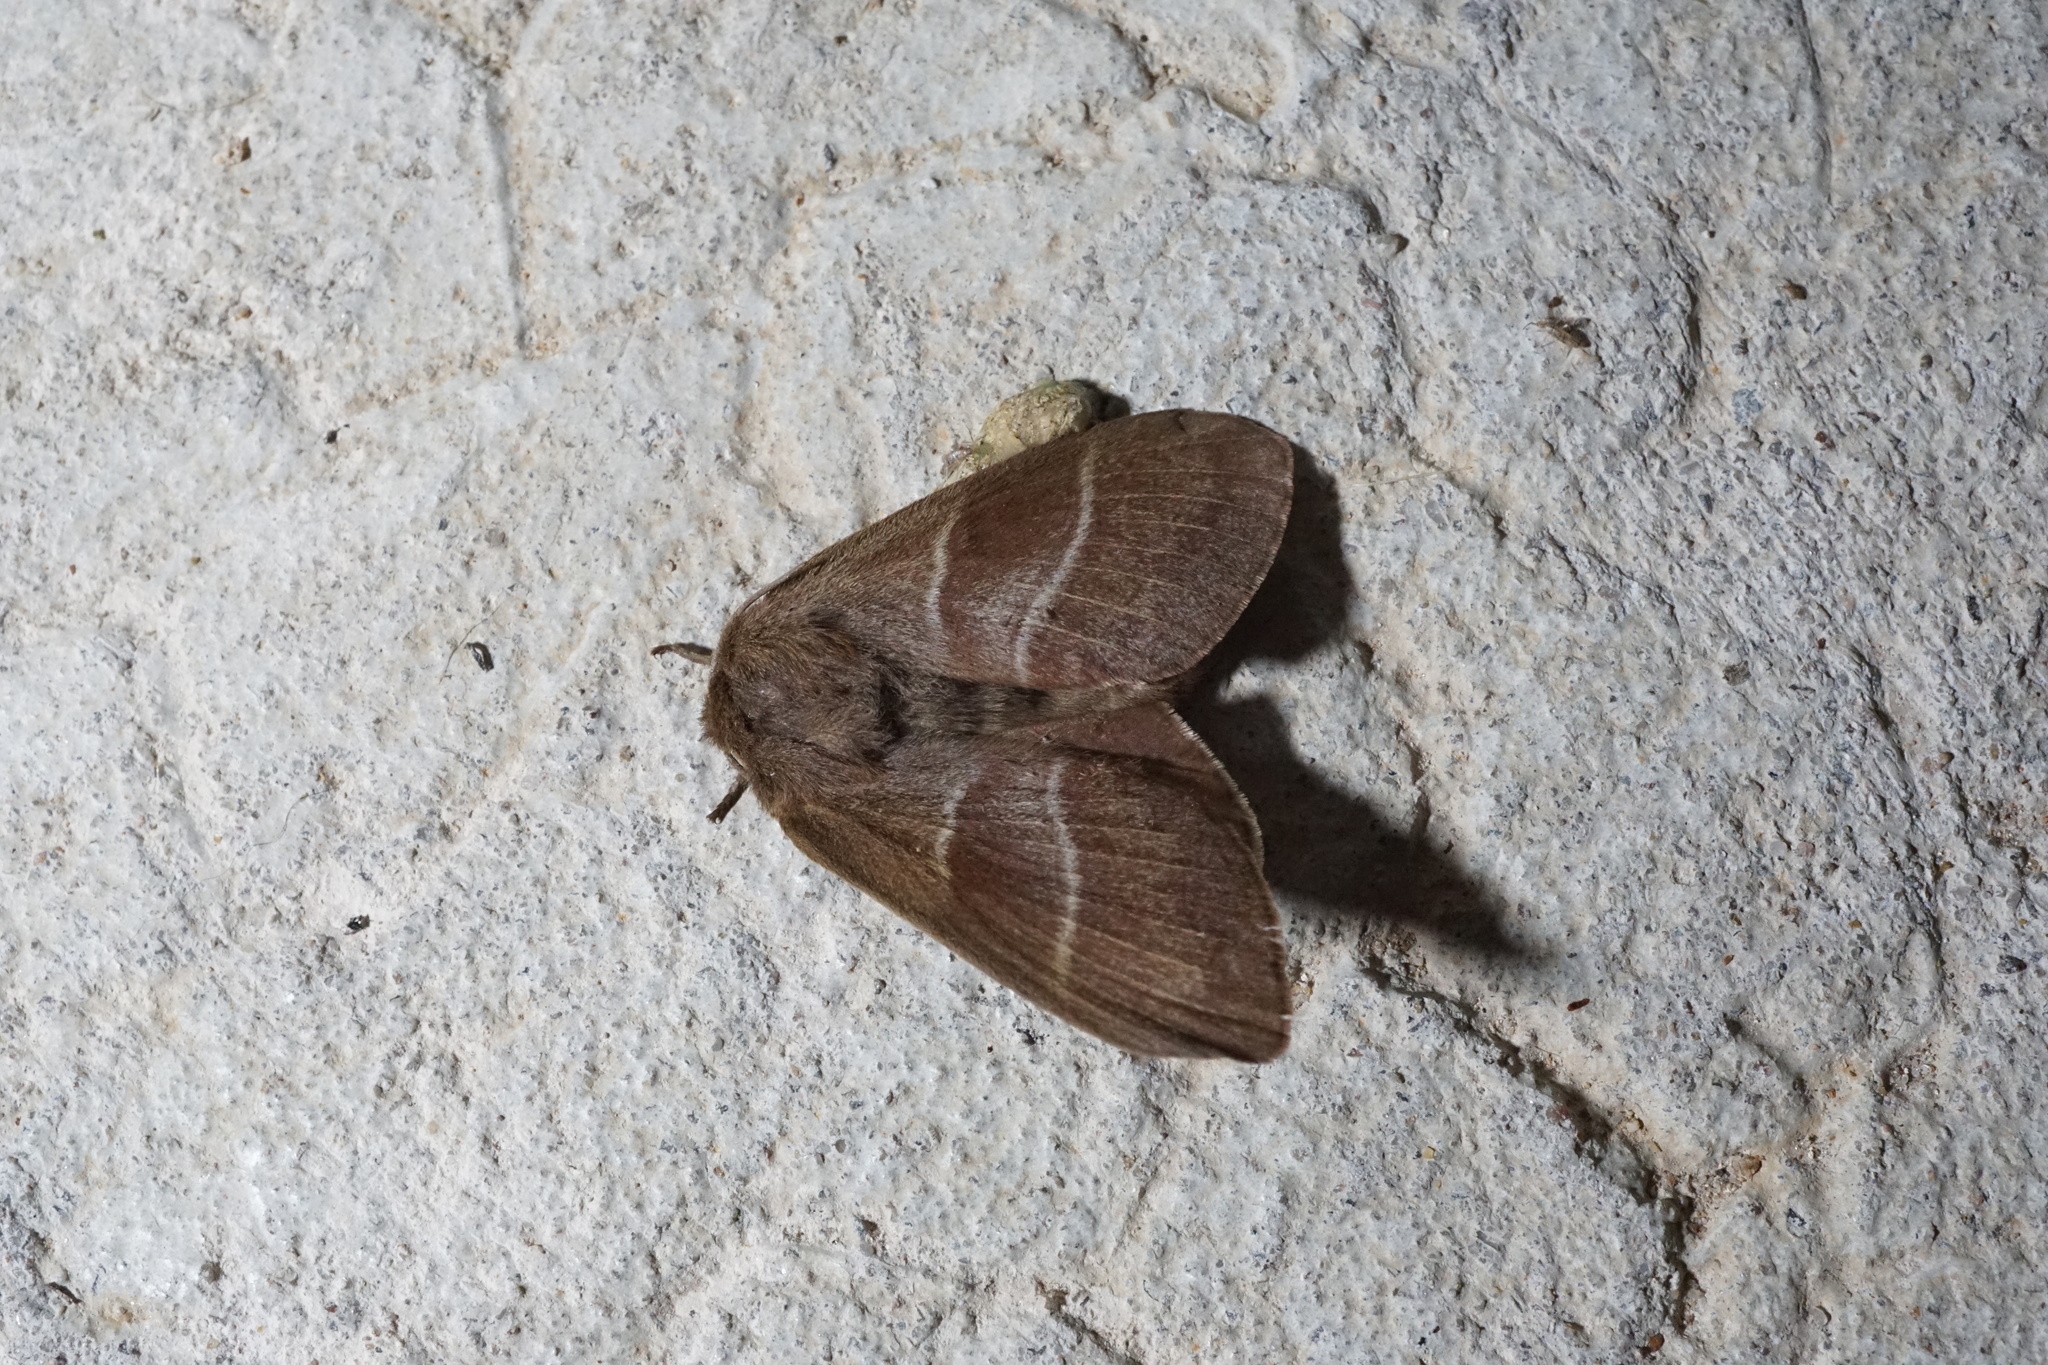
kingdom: Animalia
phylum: Arthropoda
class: Insecta
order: Lepidoptera
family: Lasiocampidae
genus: Macrothylacia
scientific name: Macrothylacia rubi
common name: Fox moth
